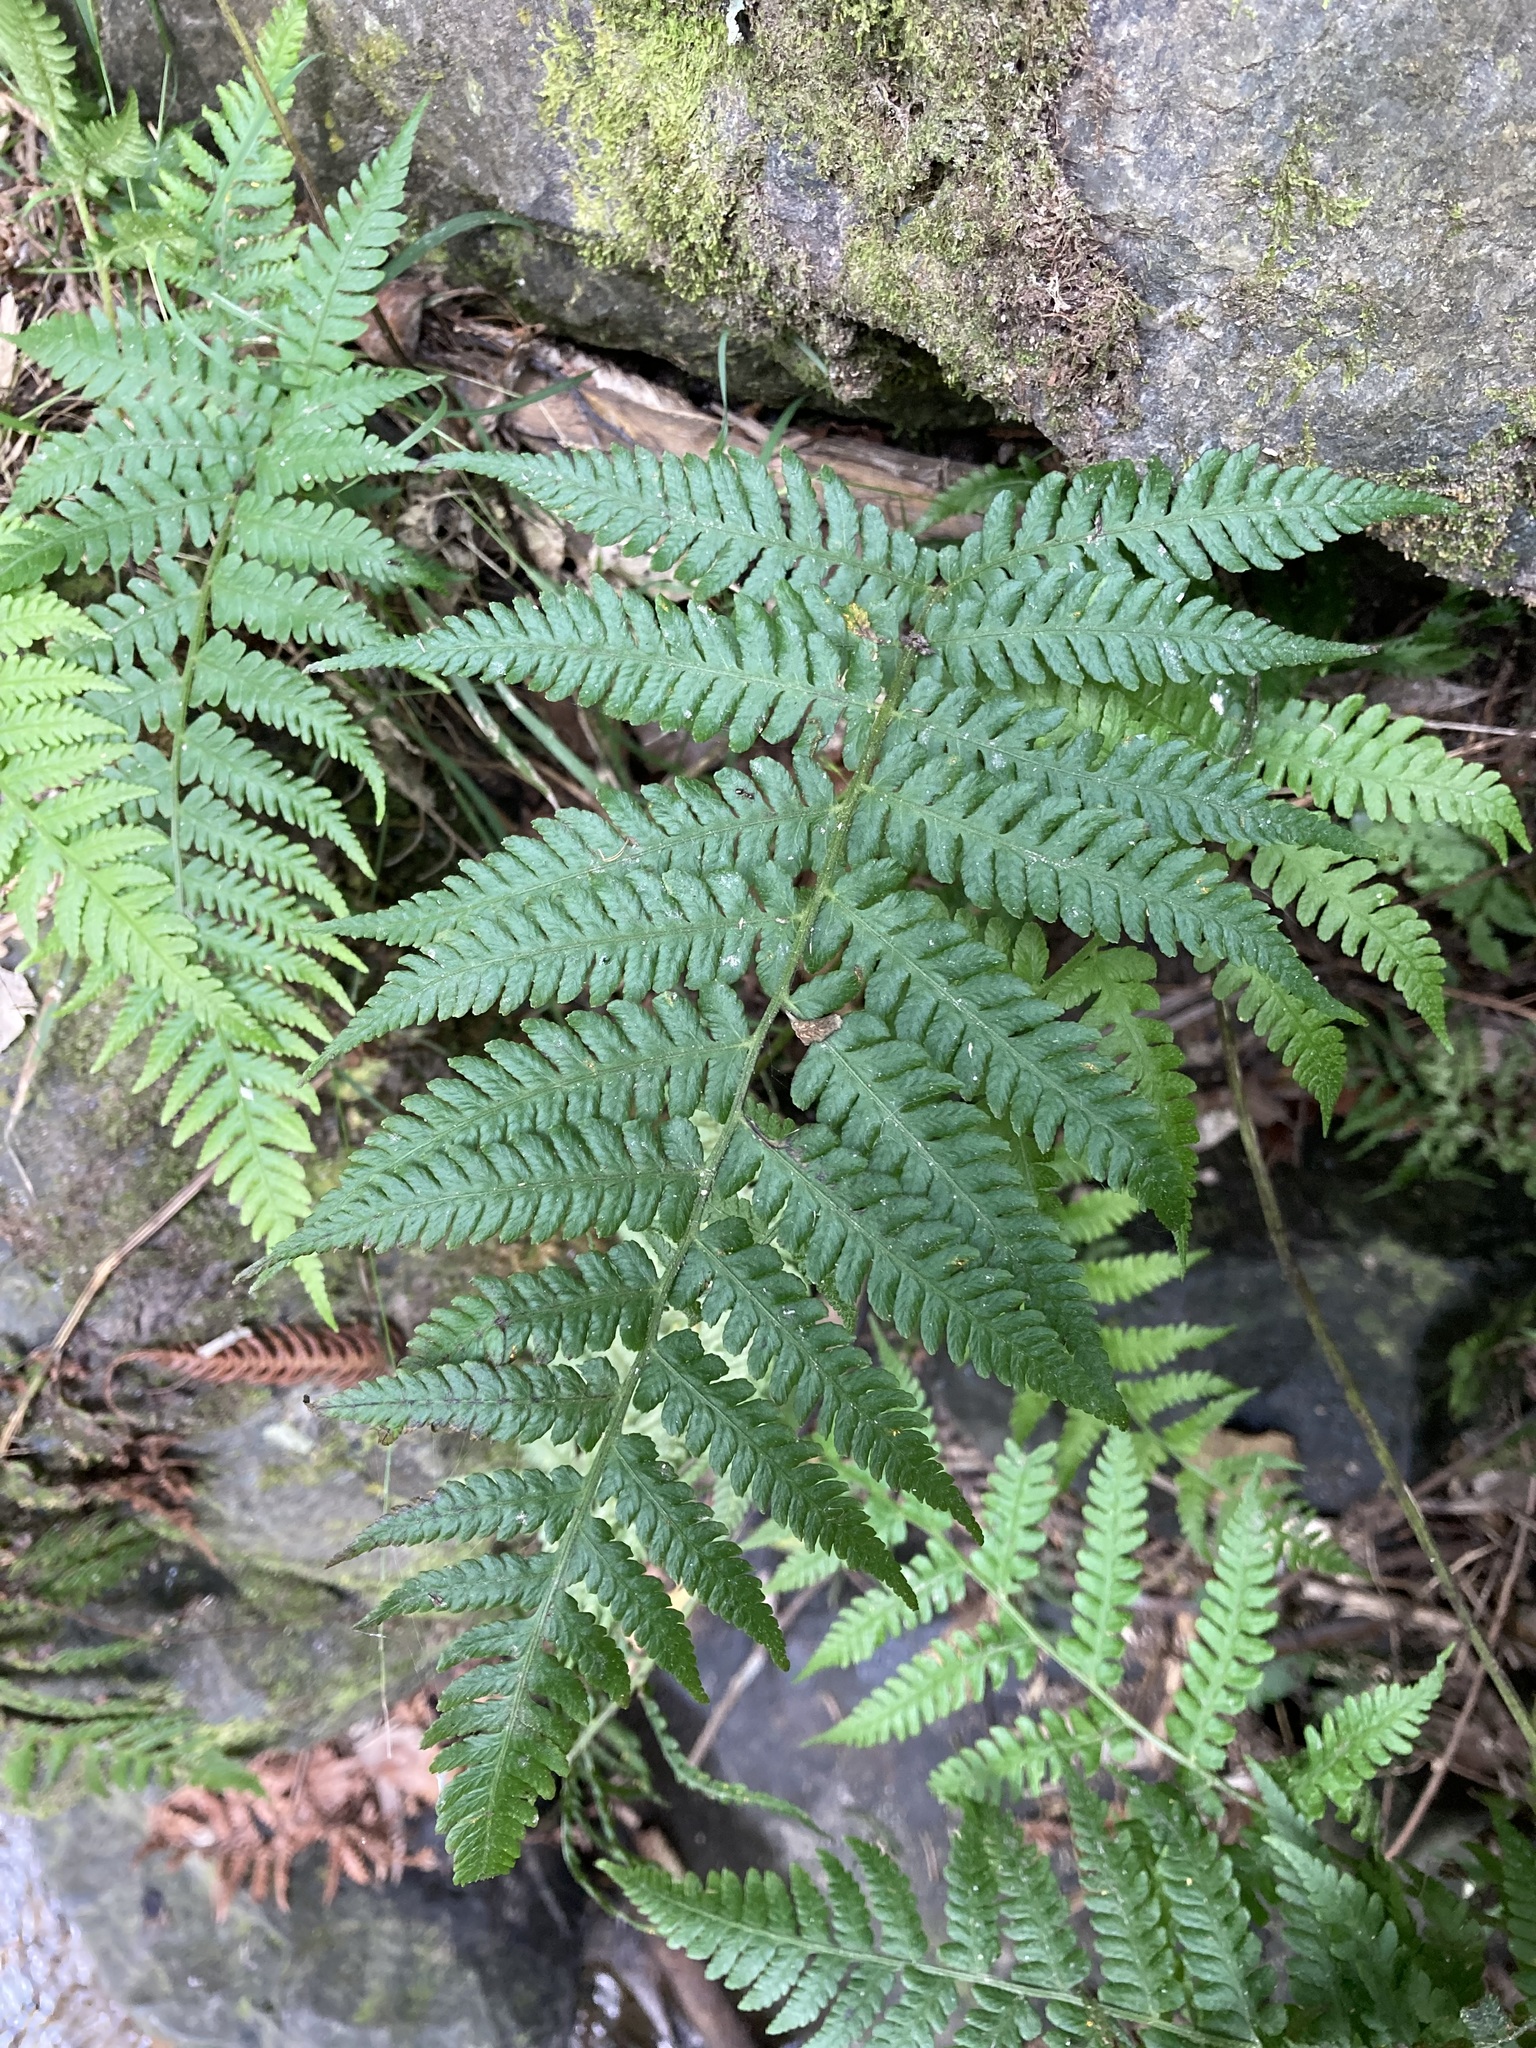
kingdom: Plantae
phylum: Tracheophyta
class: Polypodiopsida
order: Polypodiales
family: Athyriaceae
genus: Deparia
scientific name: Deparia petersenii
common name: Japanese false spleenwort
